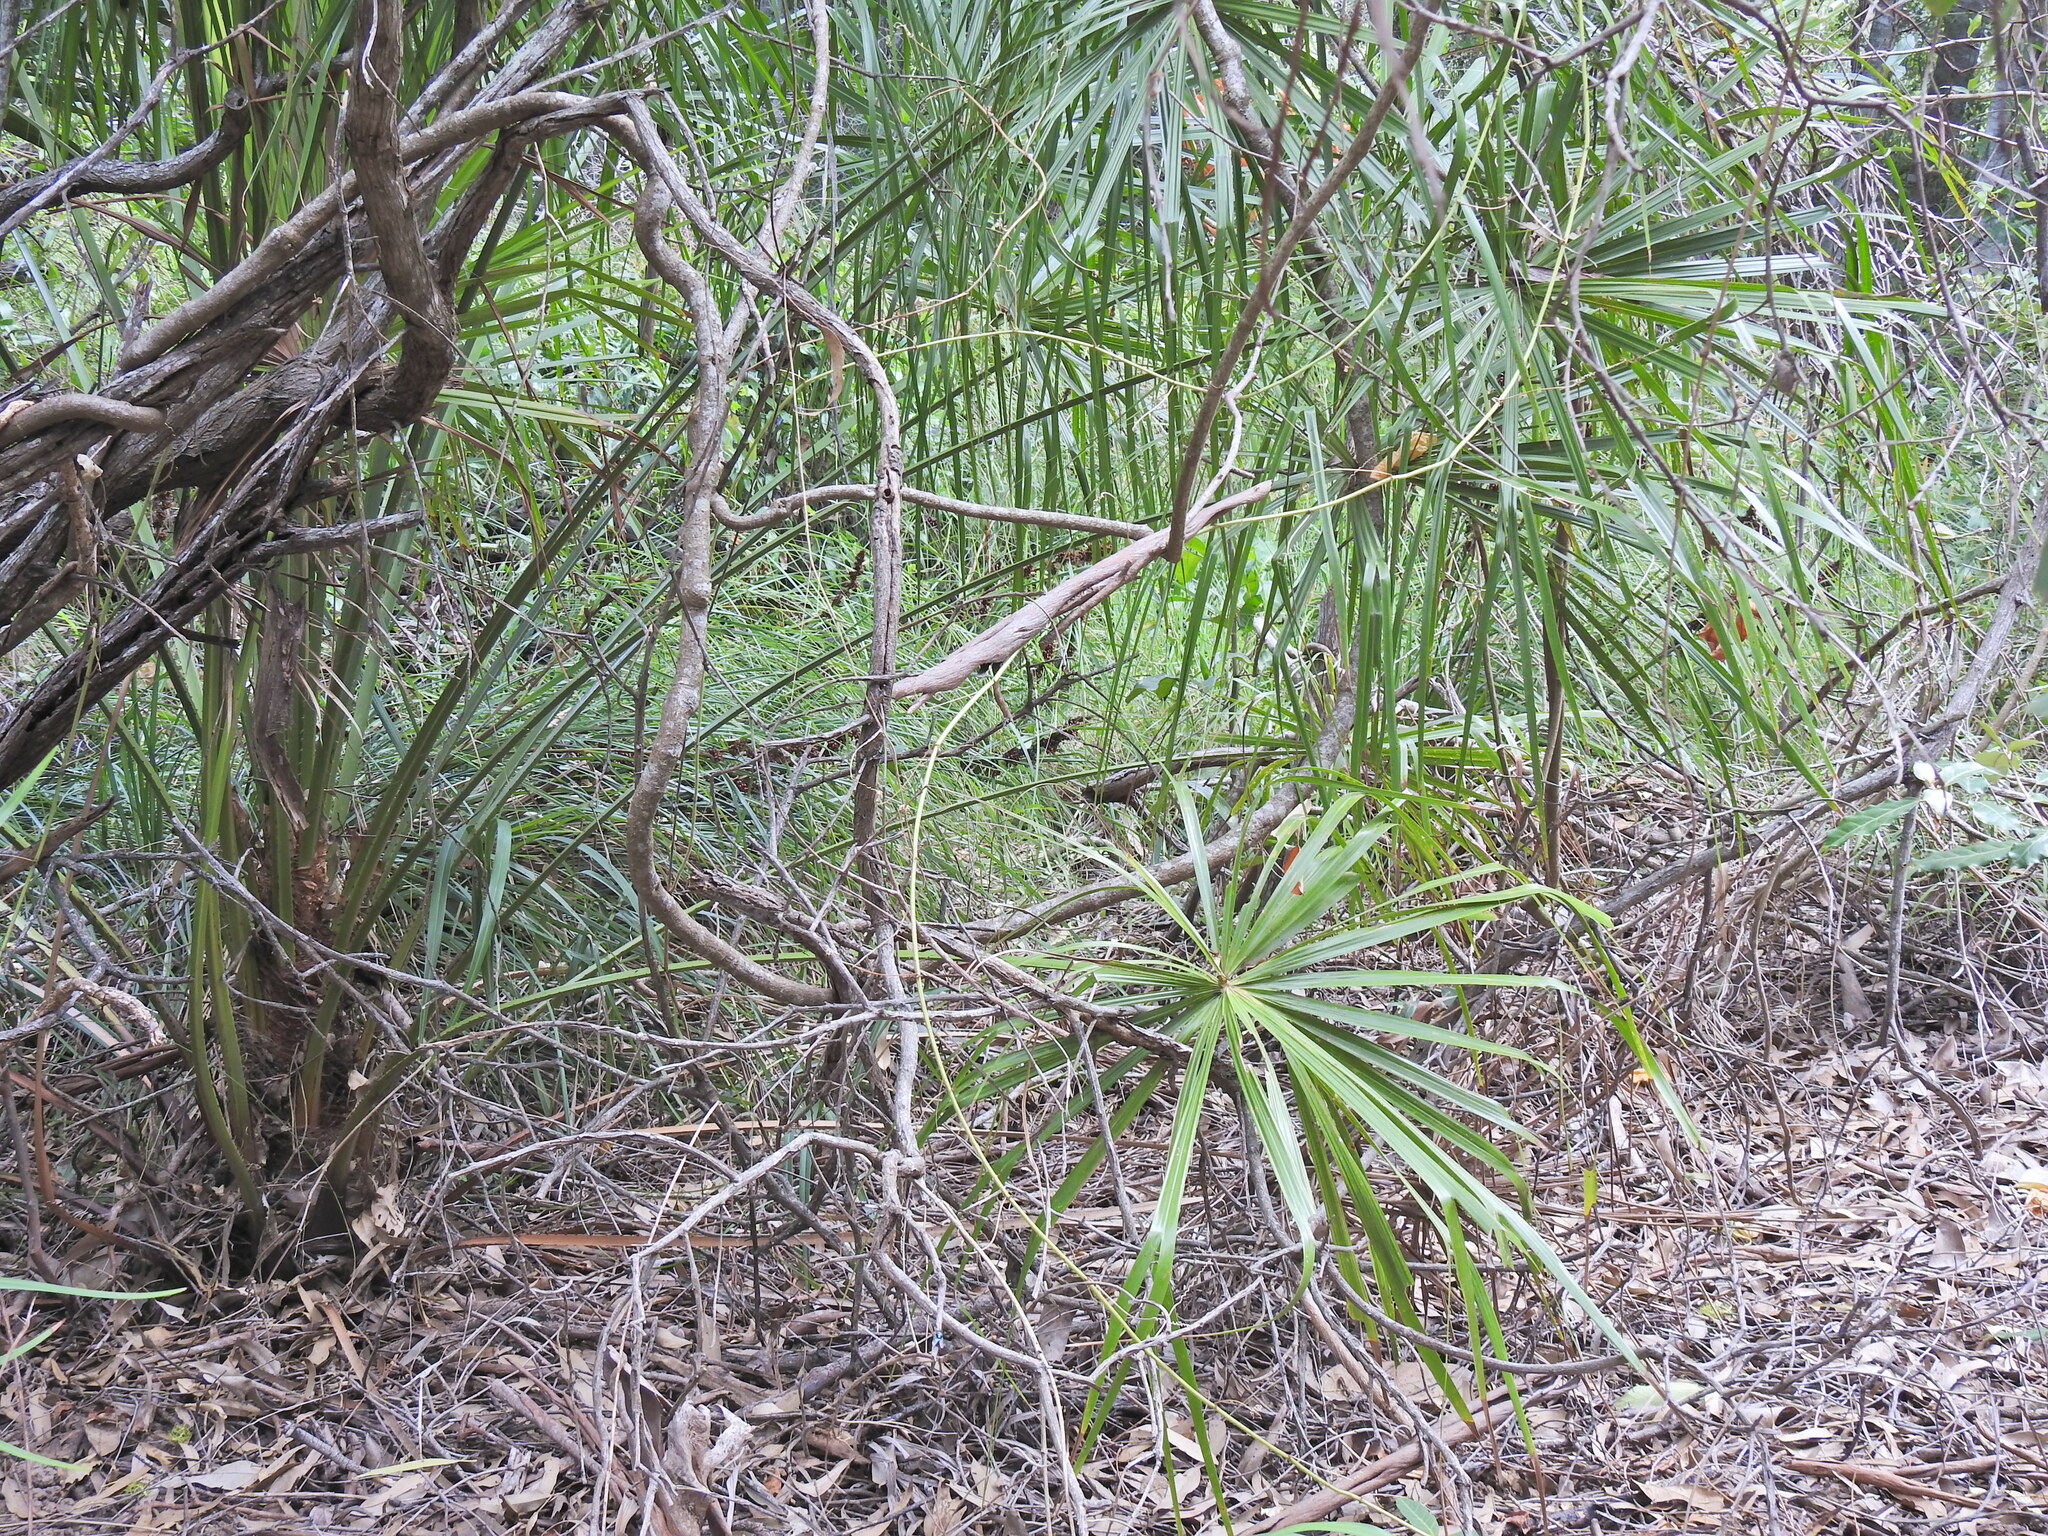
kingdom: Plantae
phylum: Tracheophyta
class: Liliopsida
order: Arecales
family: Arecaceae
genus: Livistona
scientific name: Livistona decora
